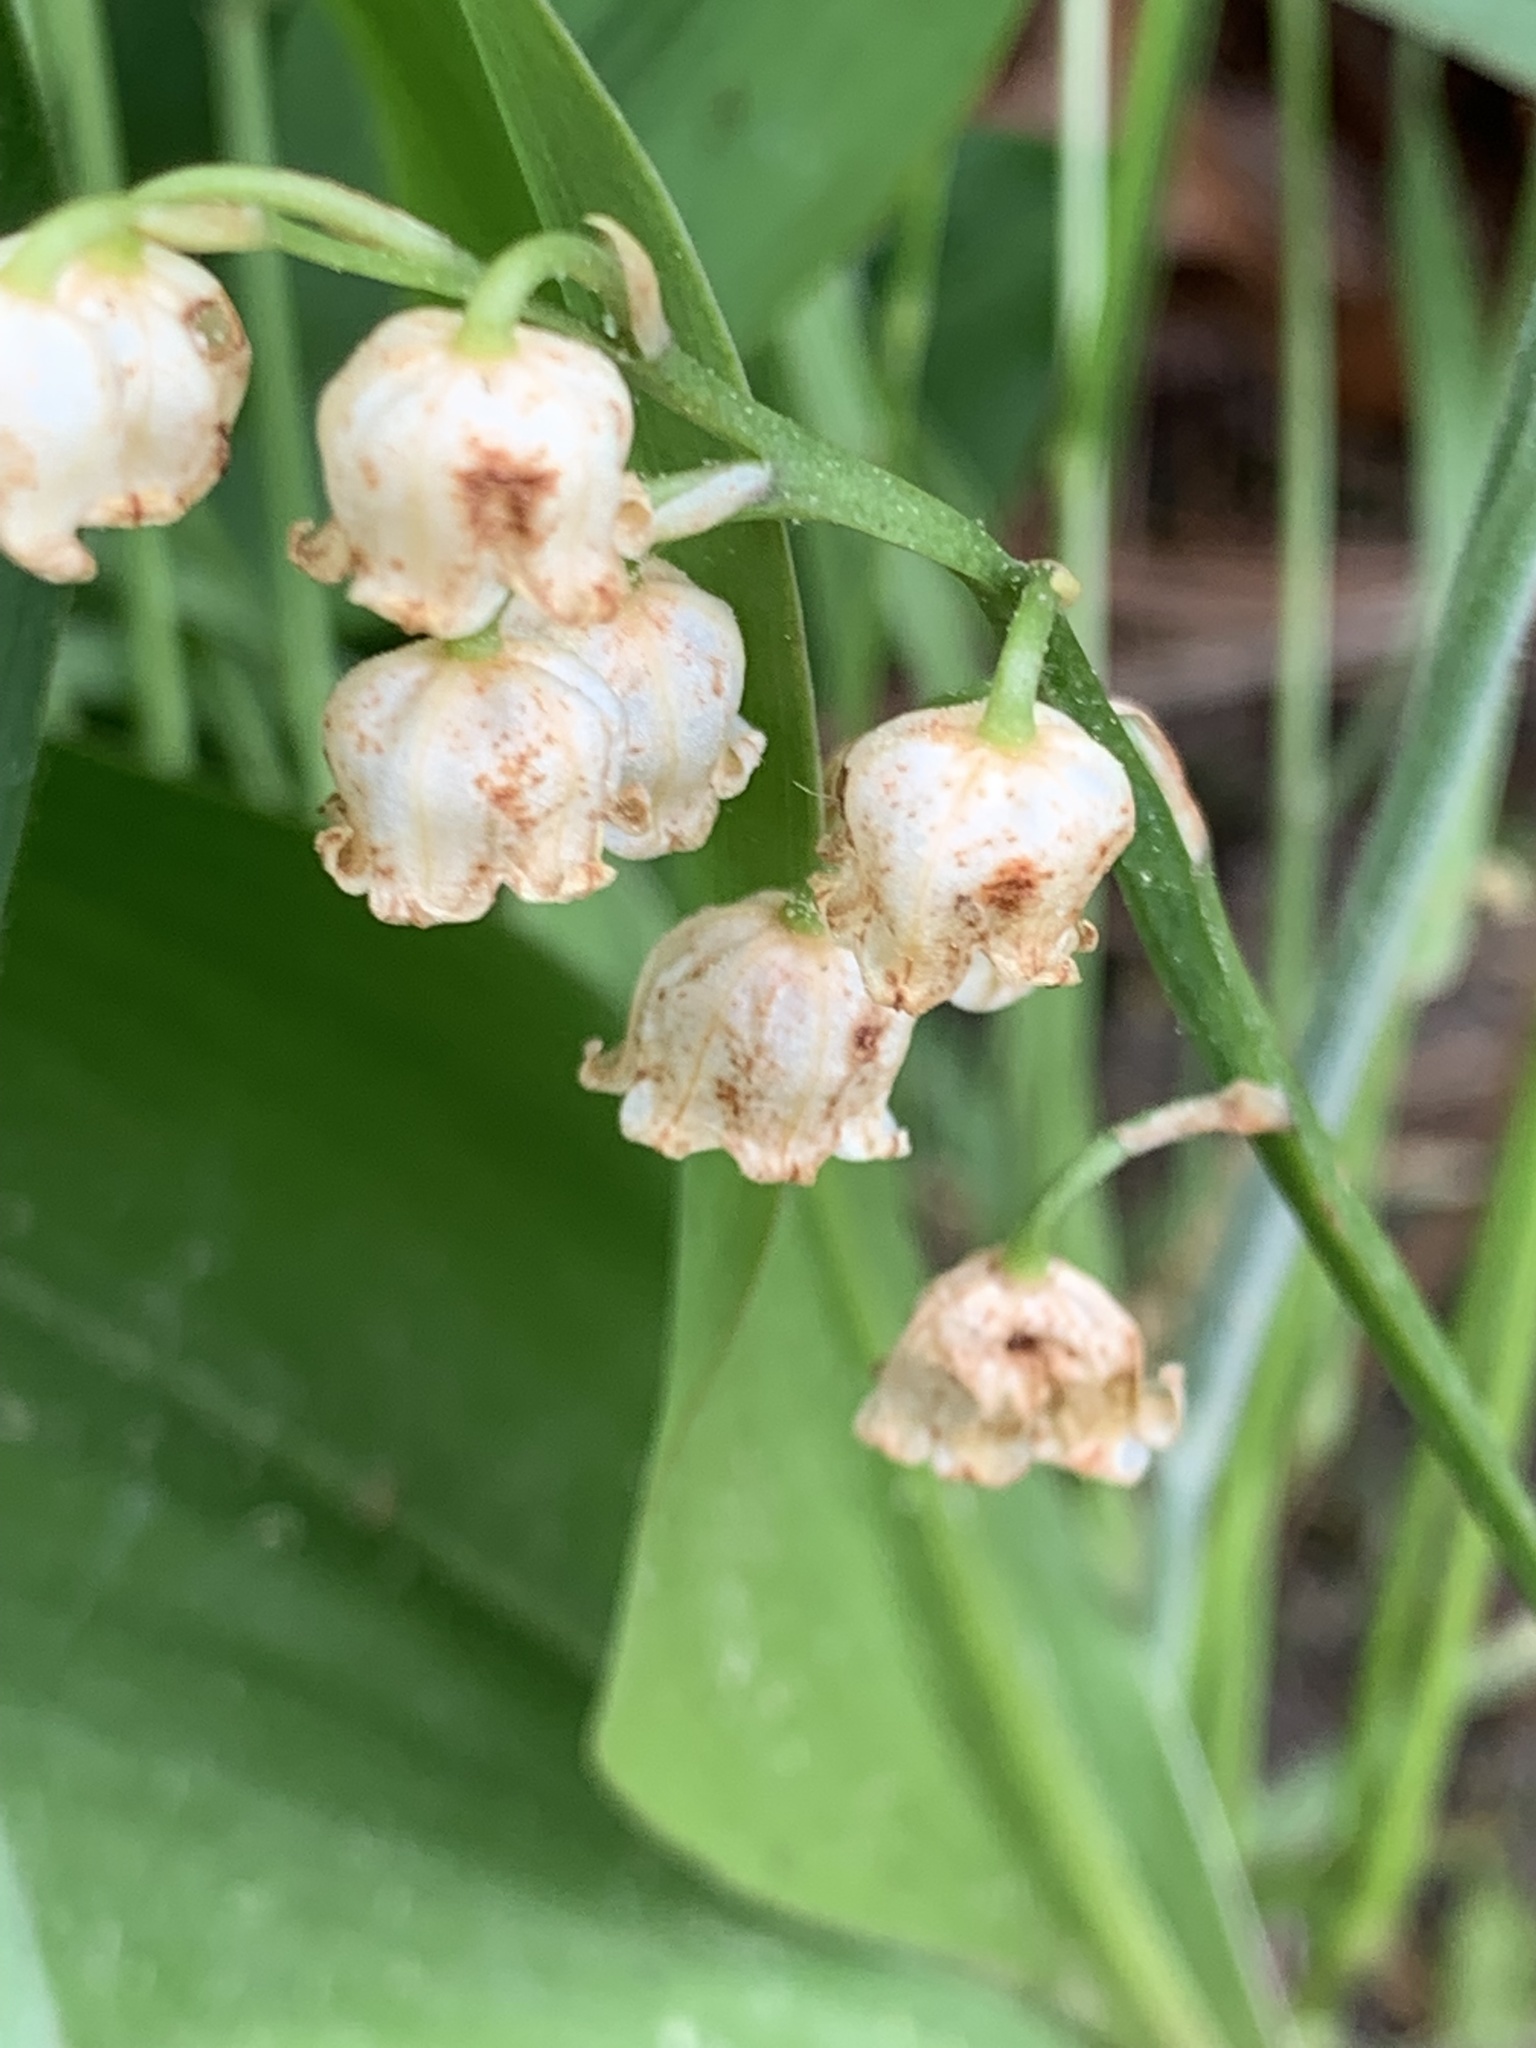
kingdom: Plantae
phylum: Tracheophyta
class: Liliopsida
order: Asparagales
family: Asparagaceae
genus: Convallaria
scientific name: Convallaria majalis
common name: Lily-of-the-valley
